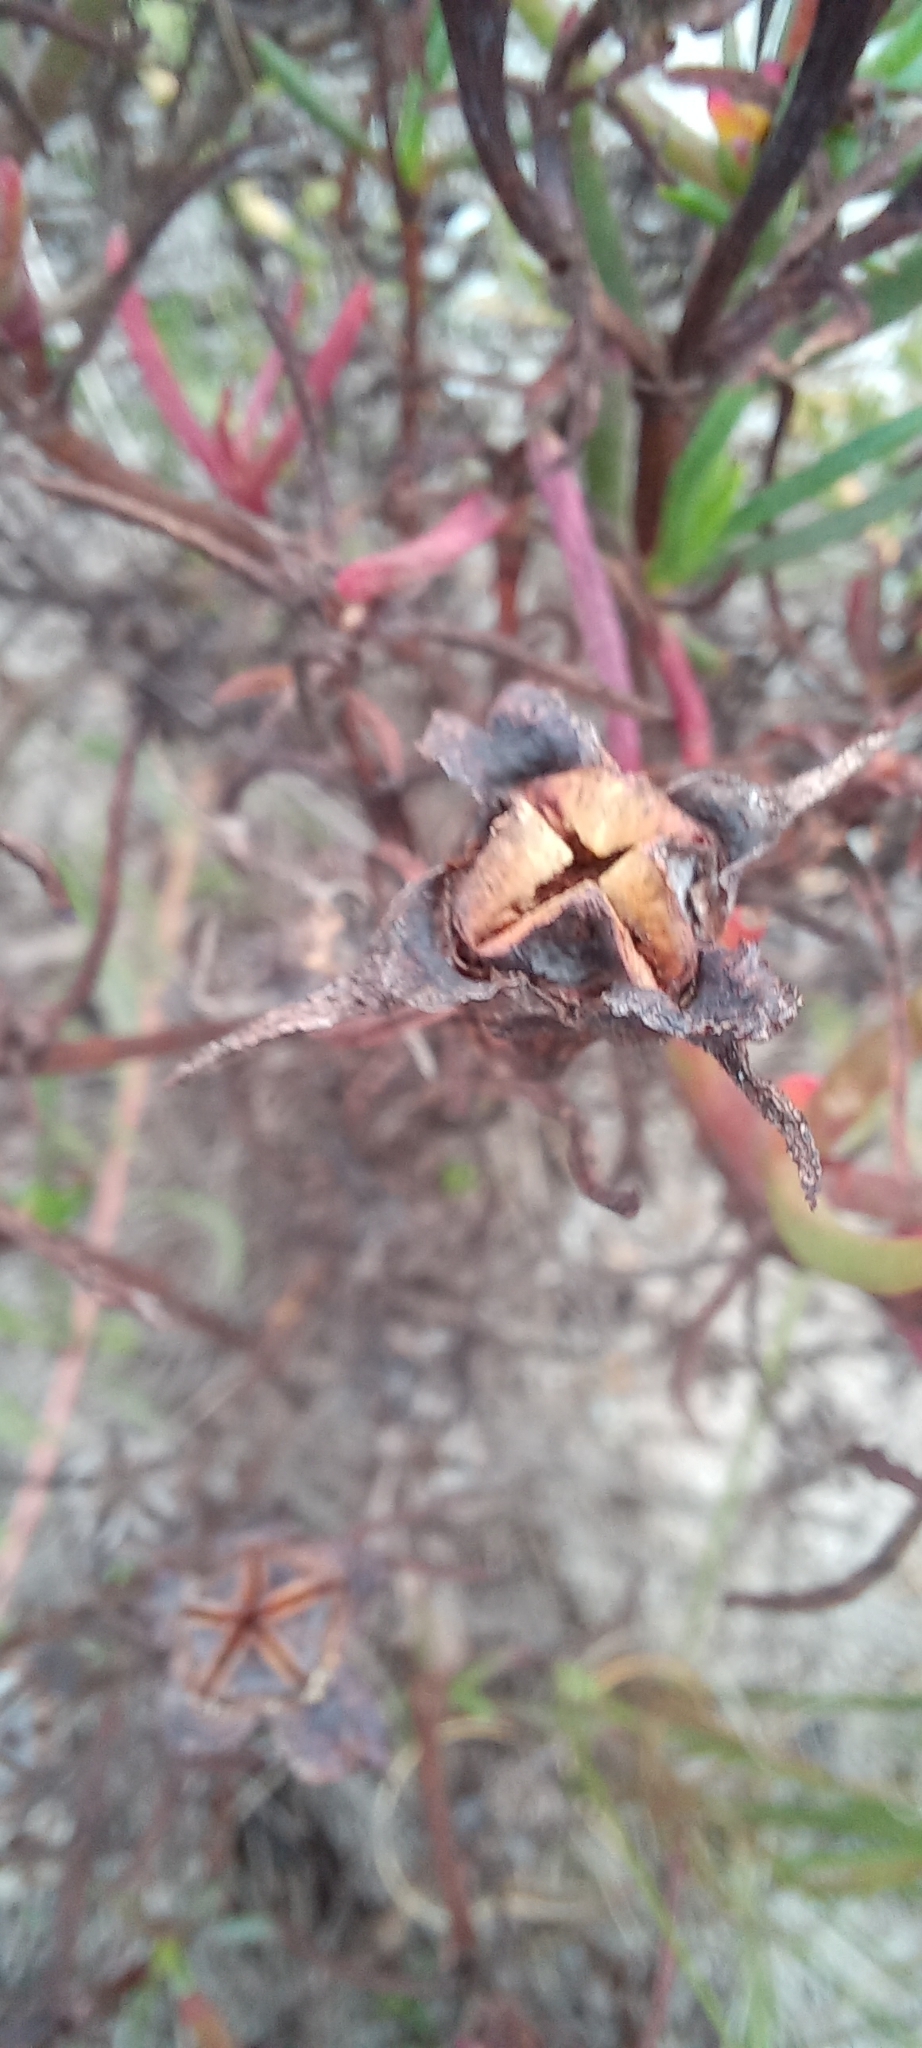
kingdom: Plantae
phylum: Tracheophyta
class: Magnoliopsida
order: Caryophyllales
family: Aizoaceae
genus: Lampranthus
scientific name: Lampranthus bicolor
